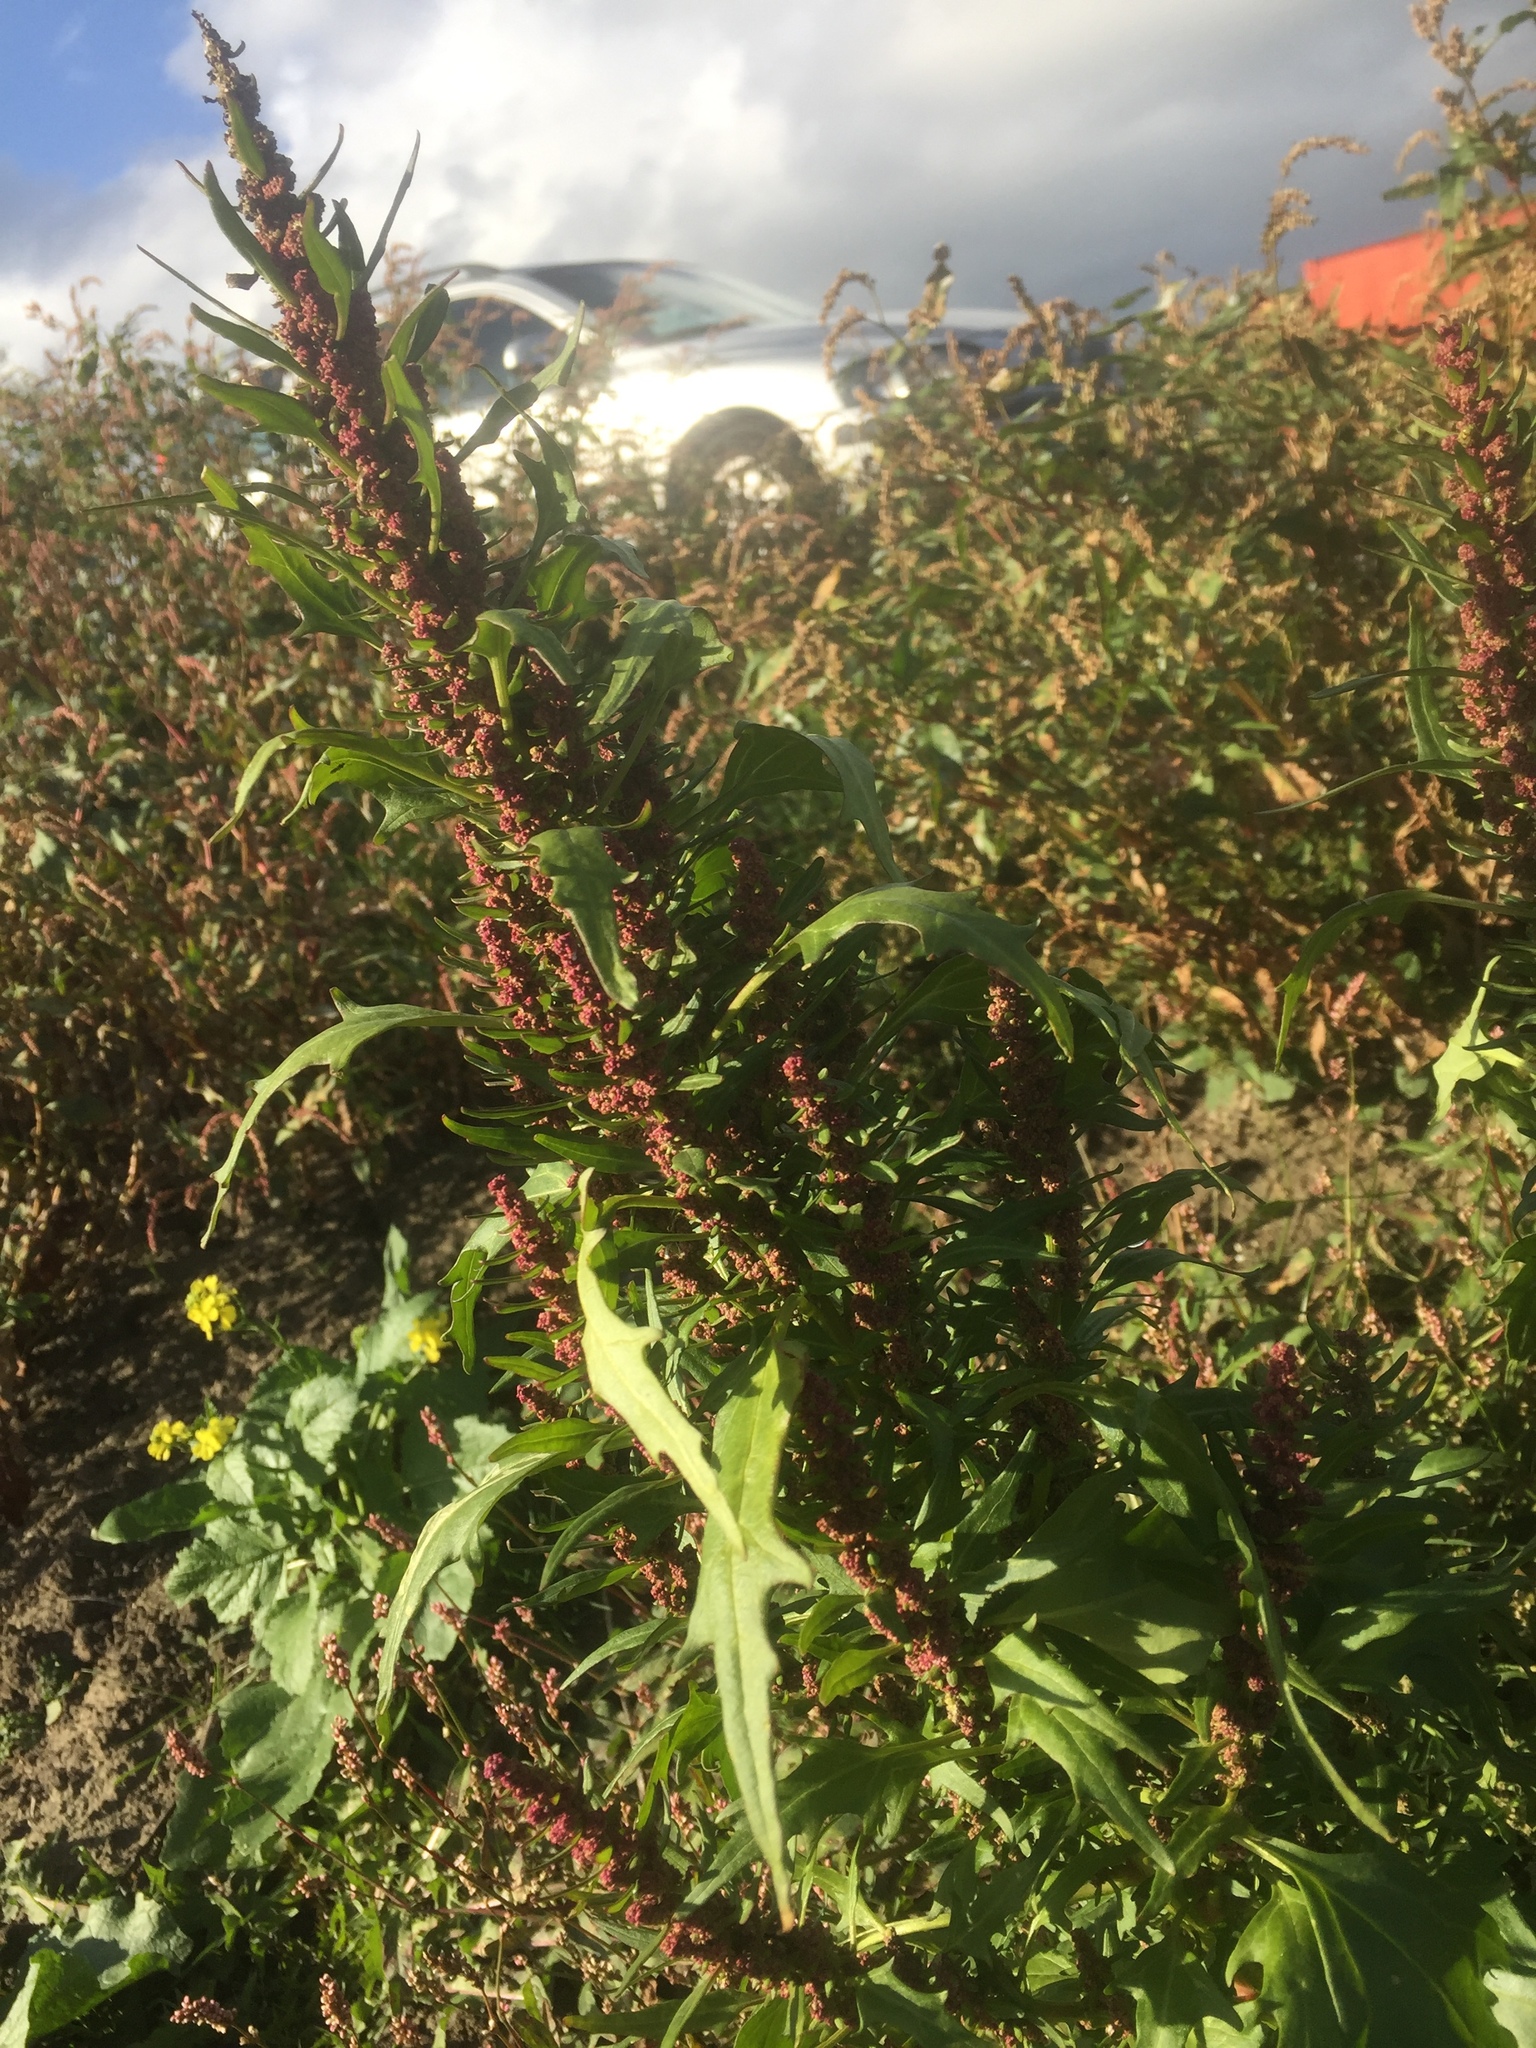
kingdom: Plantae
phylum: Tracheophyta
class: Magnoliopsida
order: Caryophyllales
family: Amaranthaceae
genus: Oxybasis
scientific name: Oxybasis rubra
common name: Red goosefoot
